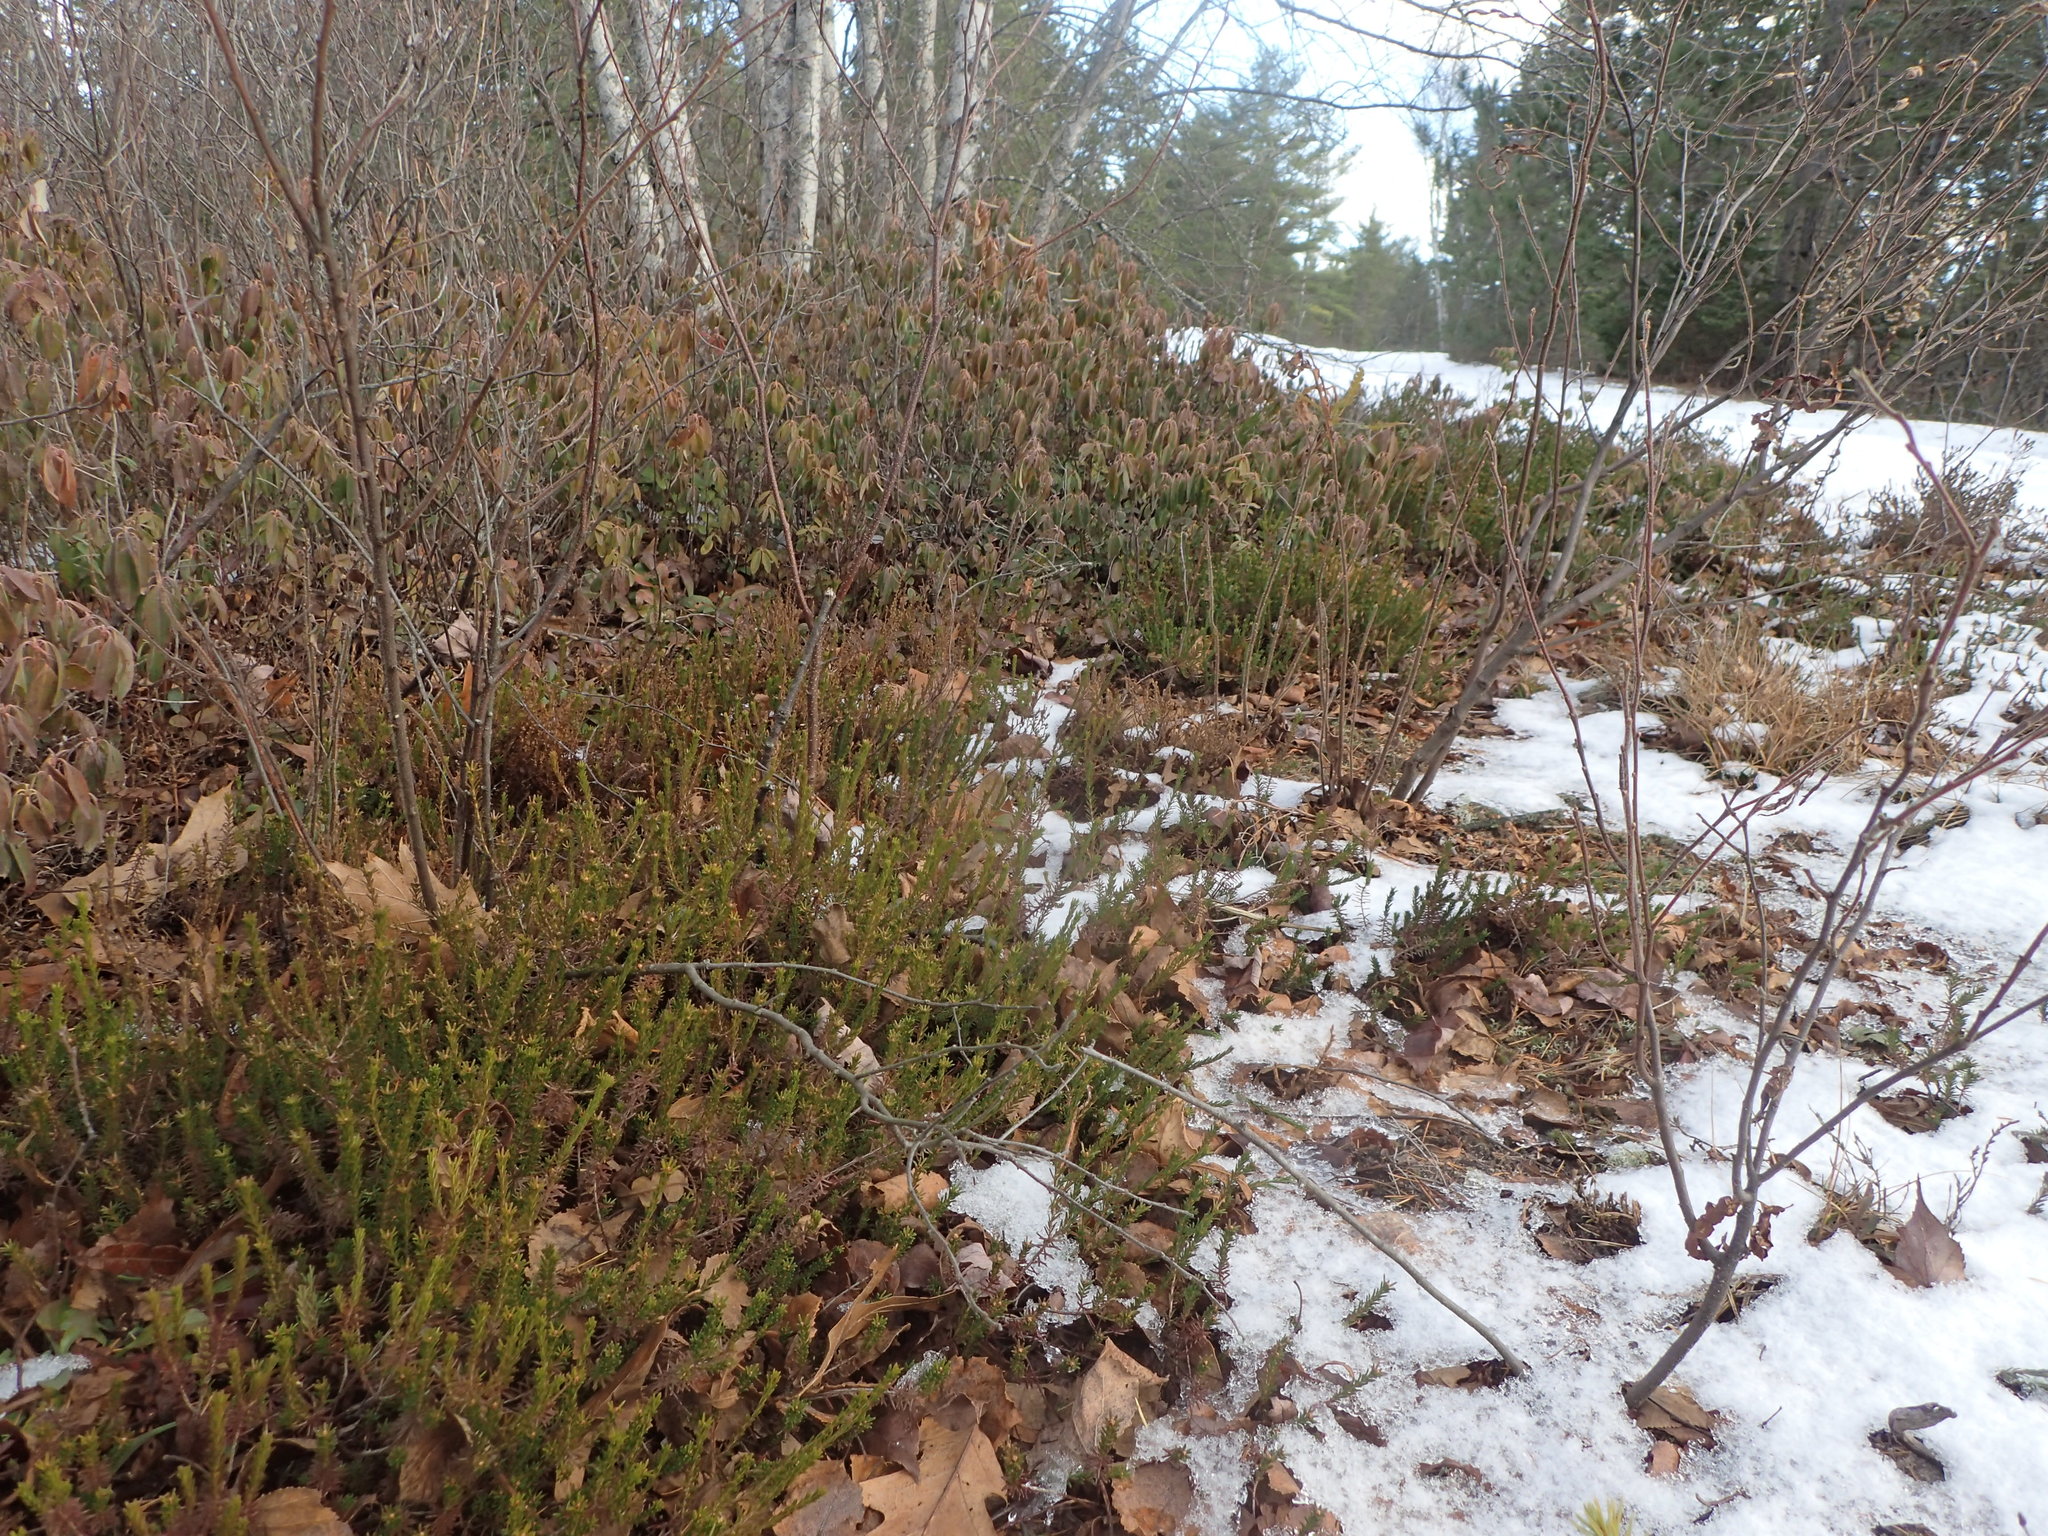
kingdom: Plantae
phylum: Tracheophyta
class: Magnoliopsida
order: Ericales
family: Ericaceae
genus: Corema
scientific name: Corema conradii
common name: Broom-crowberry
